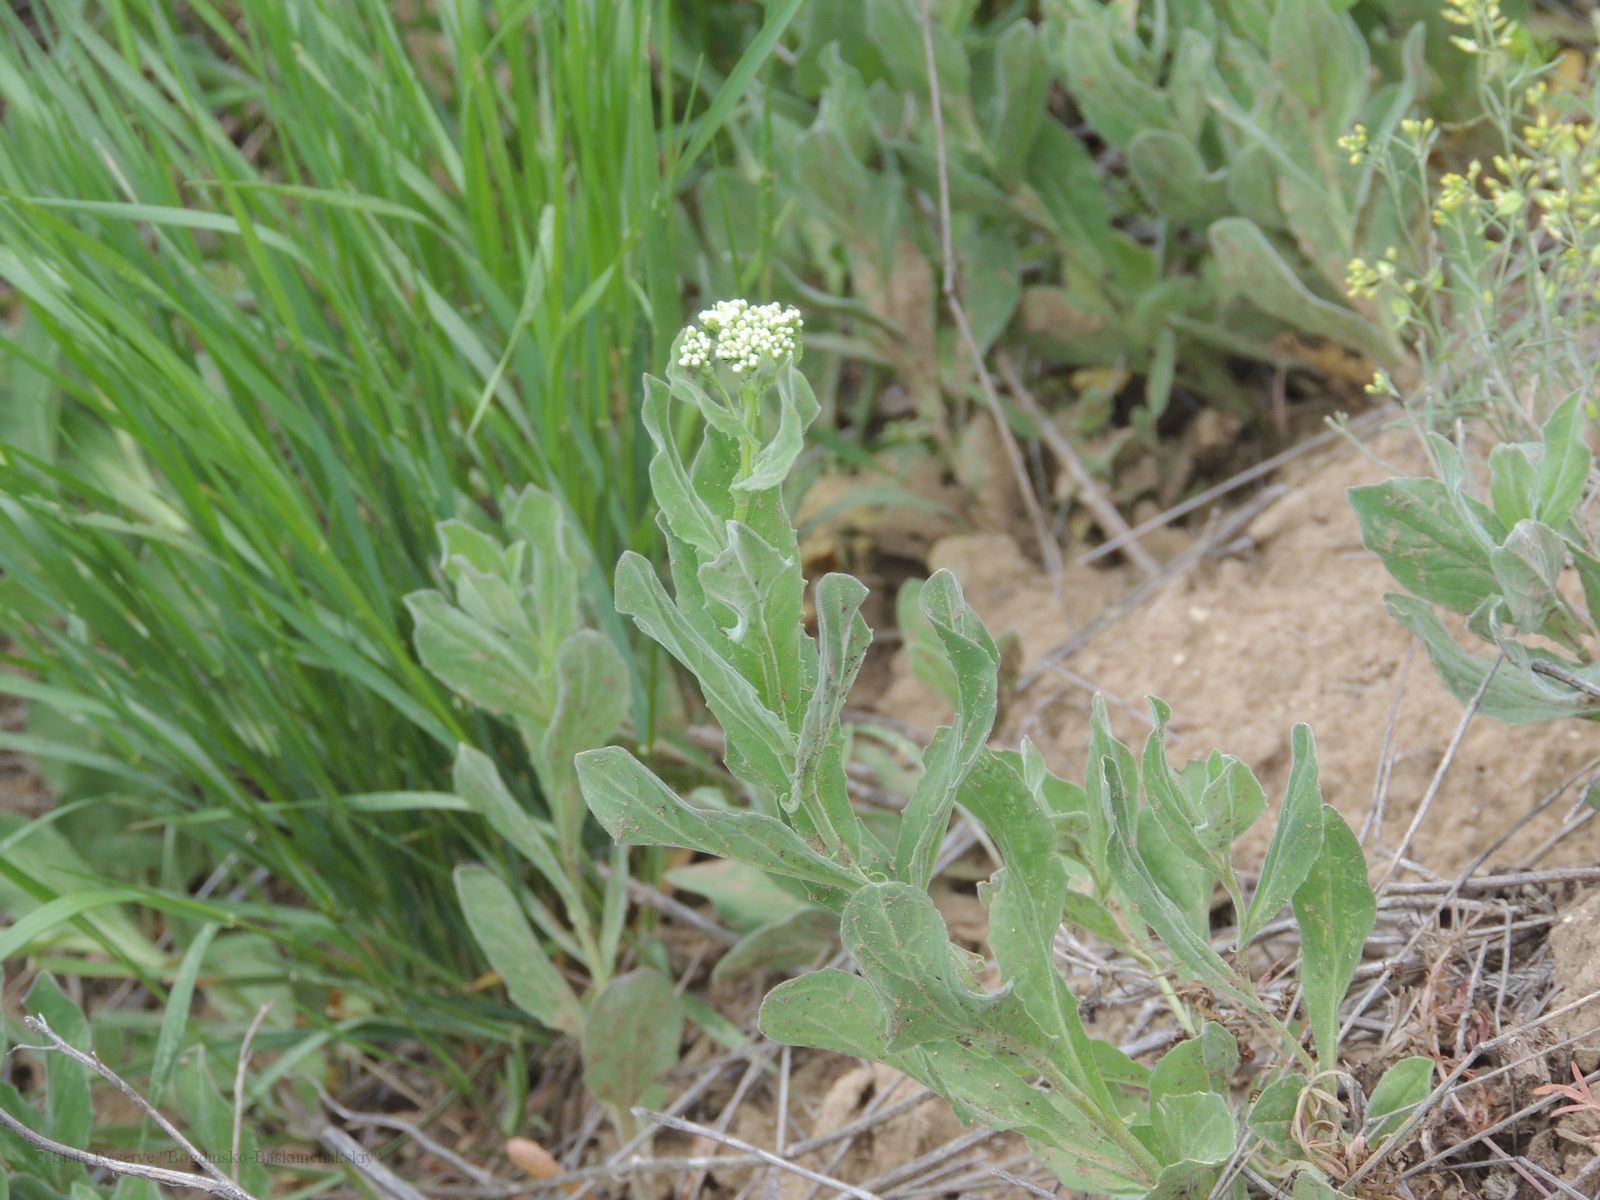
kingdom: Plantae
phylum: Tracheophyta
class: Magnoliopsida
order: Brassicales
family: Brassicaceae
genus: Lepidium
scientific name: Lepidium draba
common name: Hoary cress
